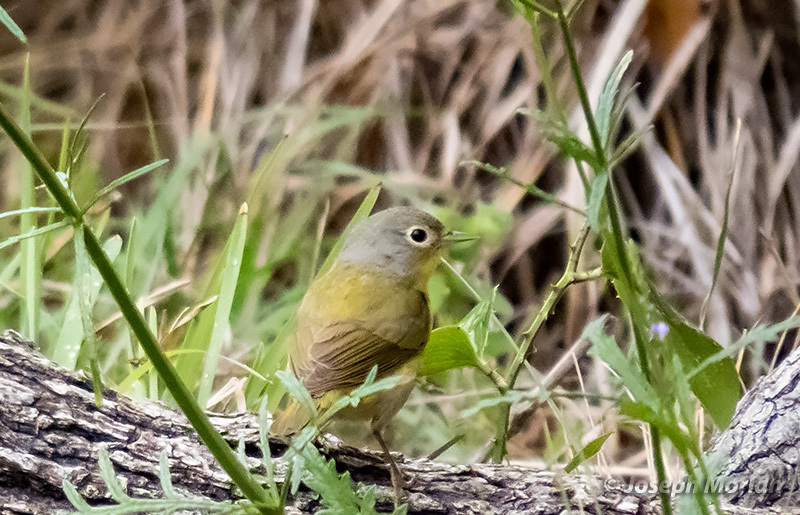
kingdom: Animalia
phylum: Chordata
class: Aves
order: Passeriformes
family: Parulidae
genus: Leiothlypis
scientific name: Leiothlypis ruficapilla
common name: Nashville warbler
